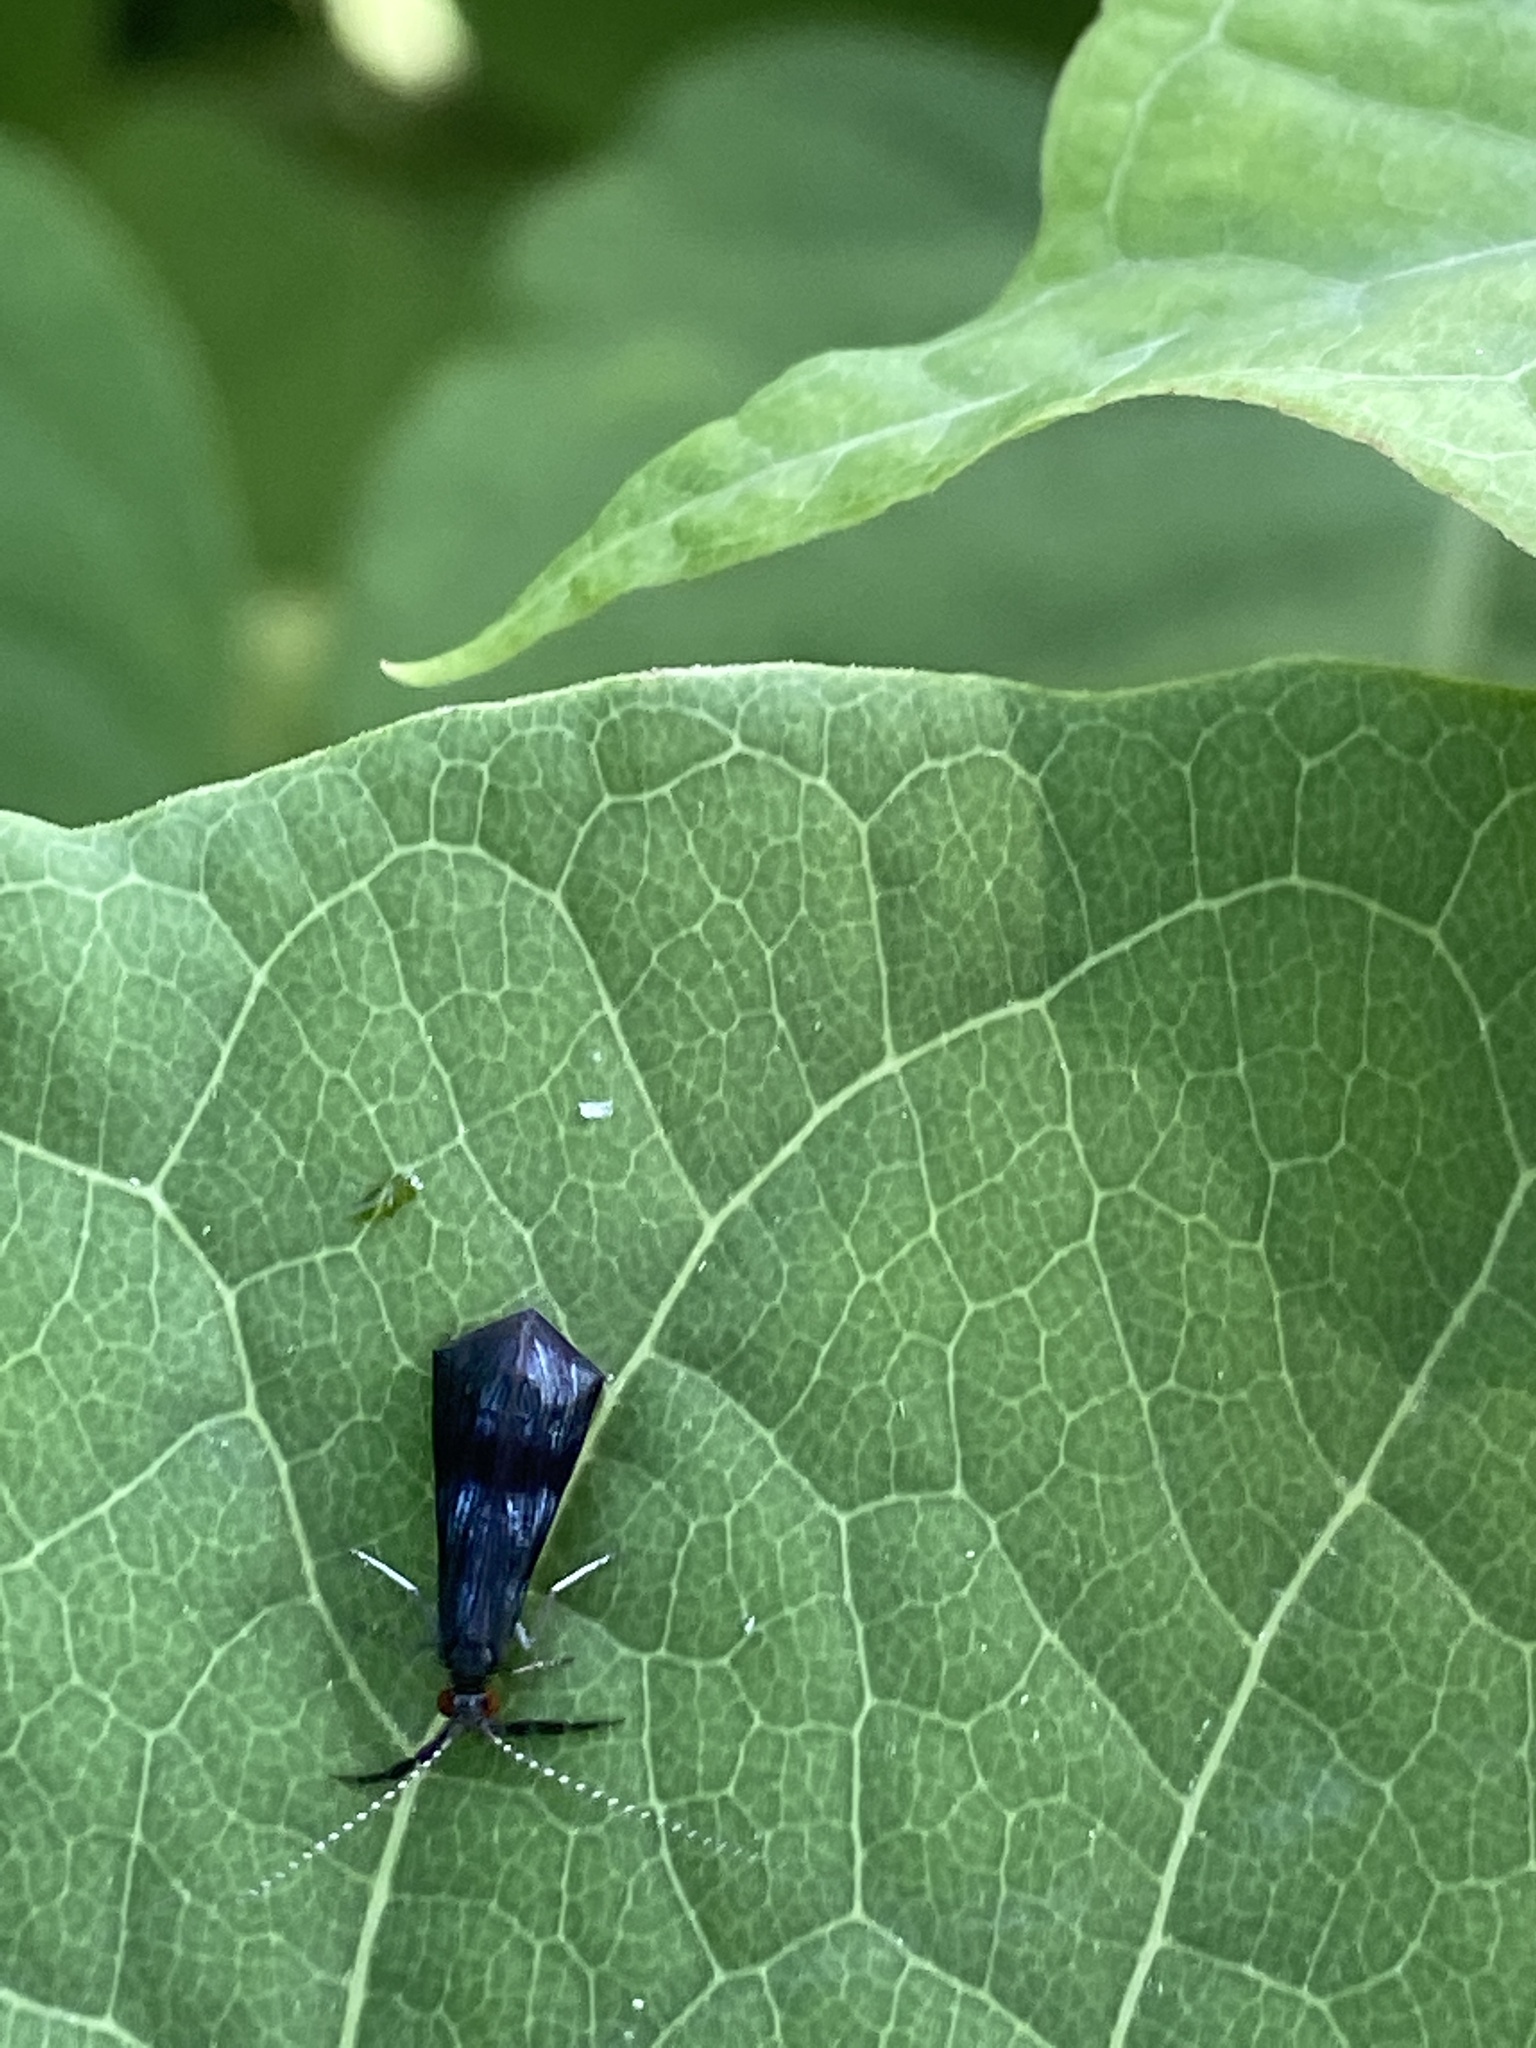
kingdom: Animalia
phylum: Arthropoda
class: Insecta
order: Trichoptera
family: Leptoceridae
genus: Mystacides
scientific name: Mystacides azureus
